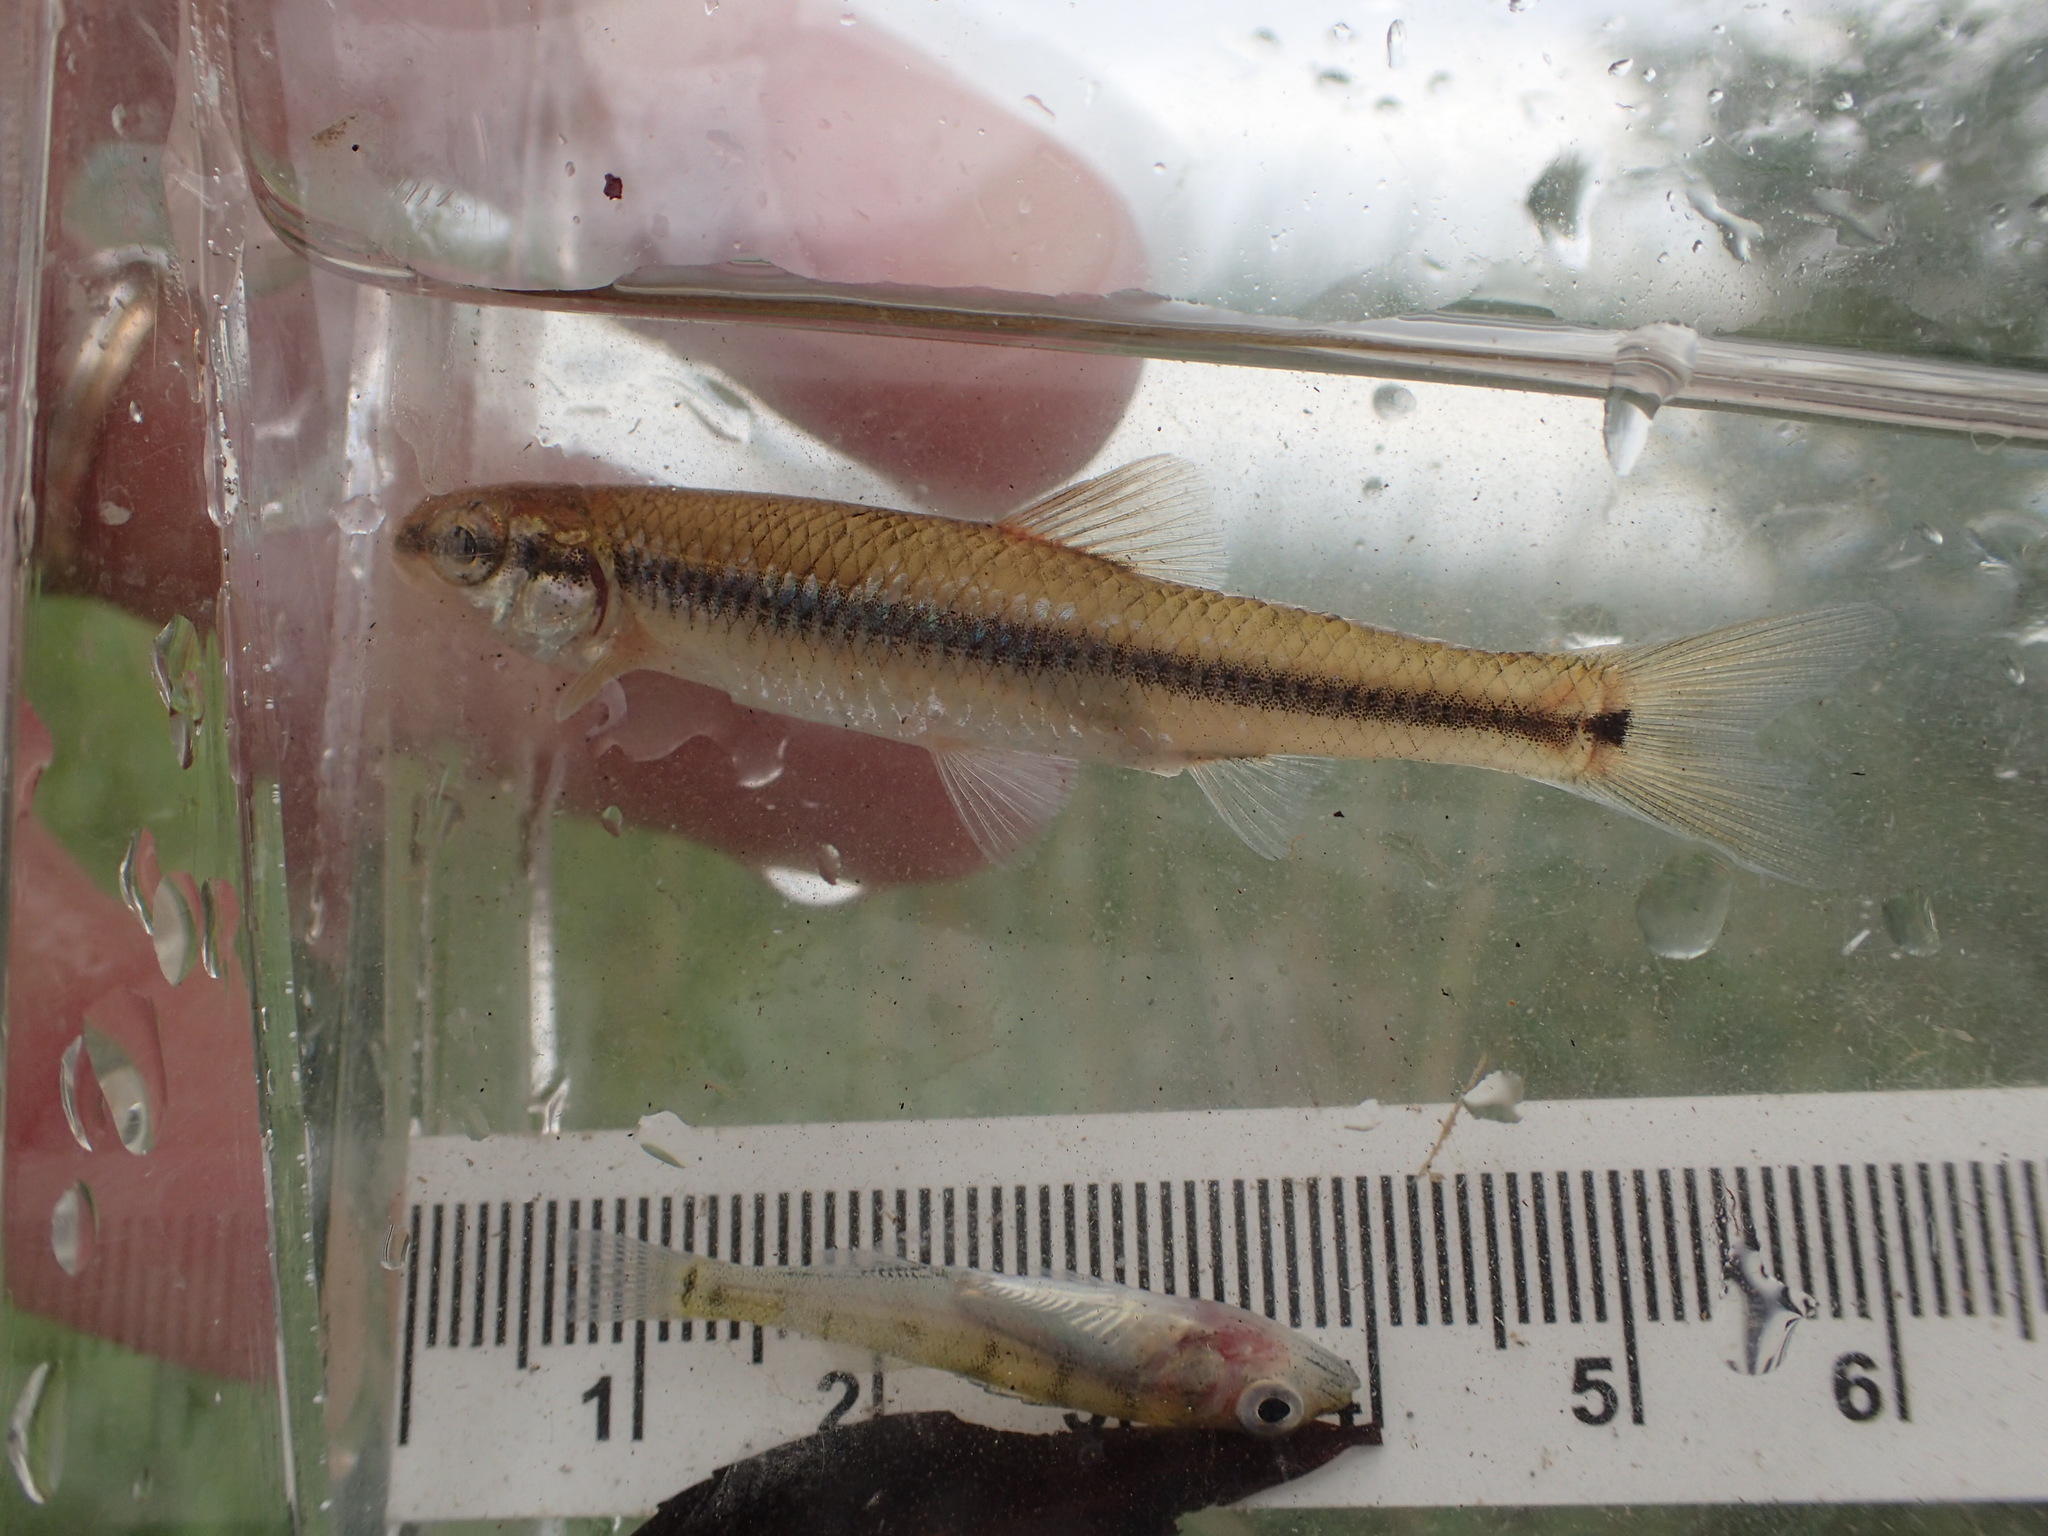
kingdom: Animalia
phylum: Chordata
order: Cypriniformes
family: Cyprinidae
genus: Pimephales
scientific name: Pimephales notatus
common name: Bluntnose minnow
